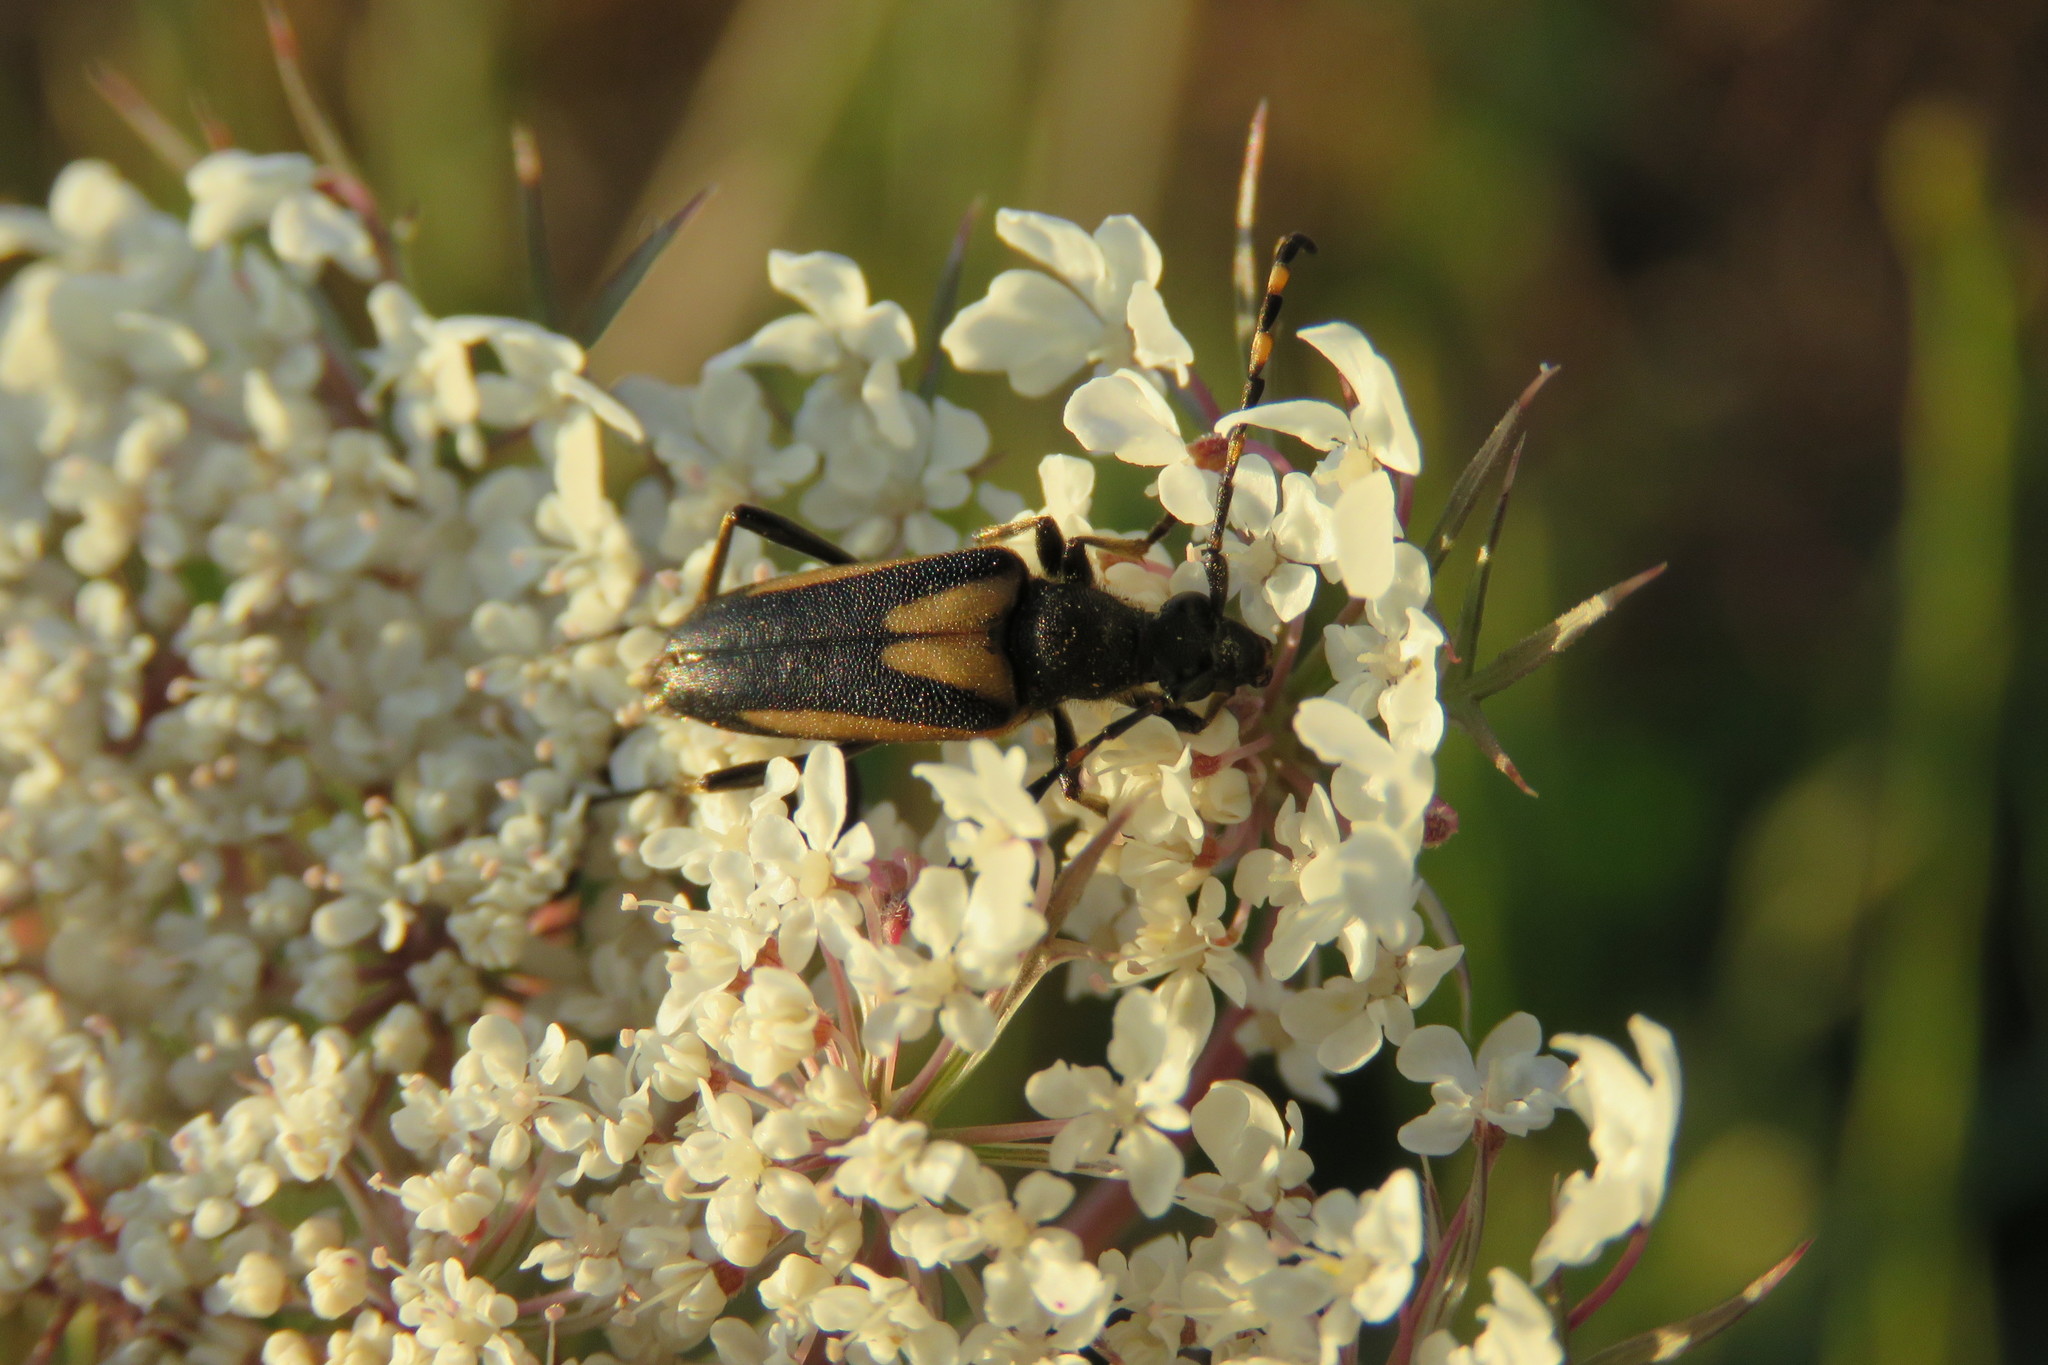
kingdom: Animalia
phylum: Arthropoda
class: Insecta
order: Coleoptera
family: Cerambycidae
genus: Stictoleptura
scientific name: Stictoleptura stragulata
